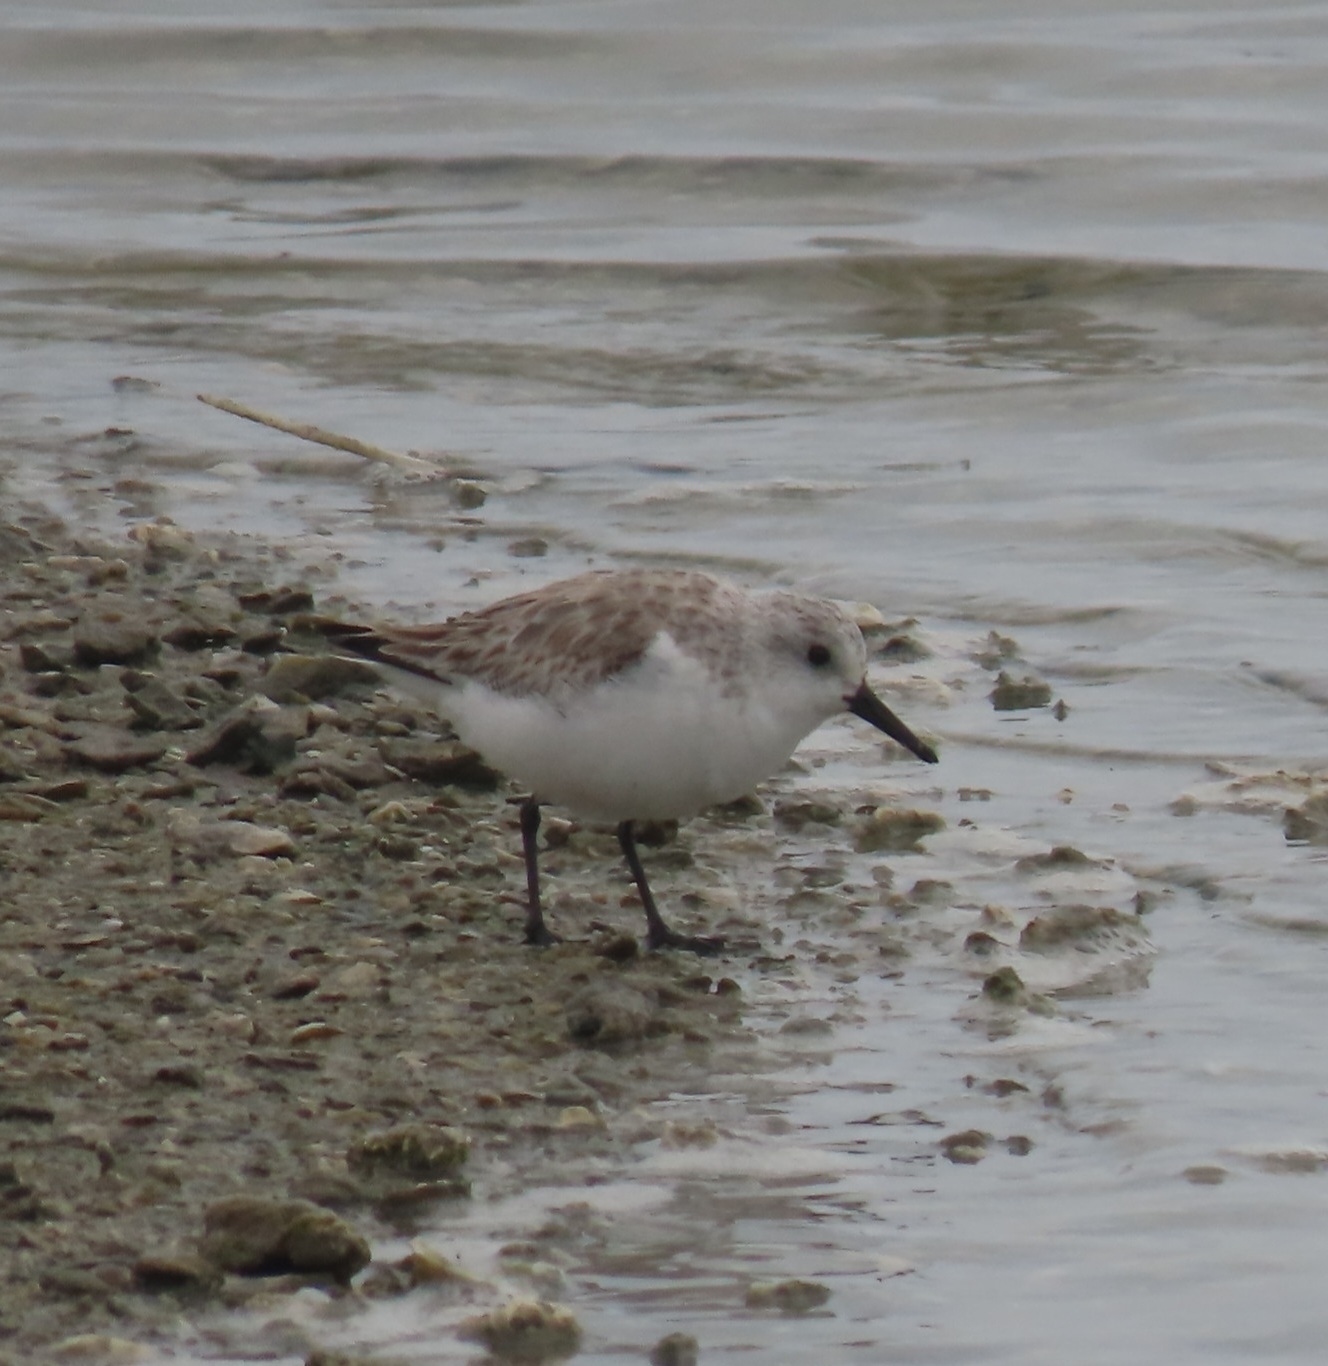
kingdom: Animalia
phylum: Chordata
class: Aves
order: Charadriiformes
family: Scolopacidae
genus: Calidris
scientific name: Calidris alba
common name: Sanderling
